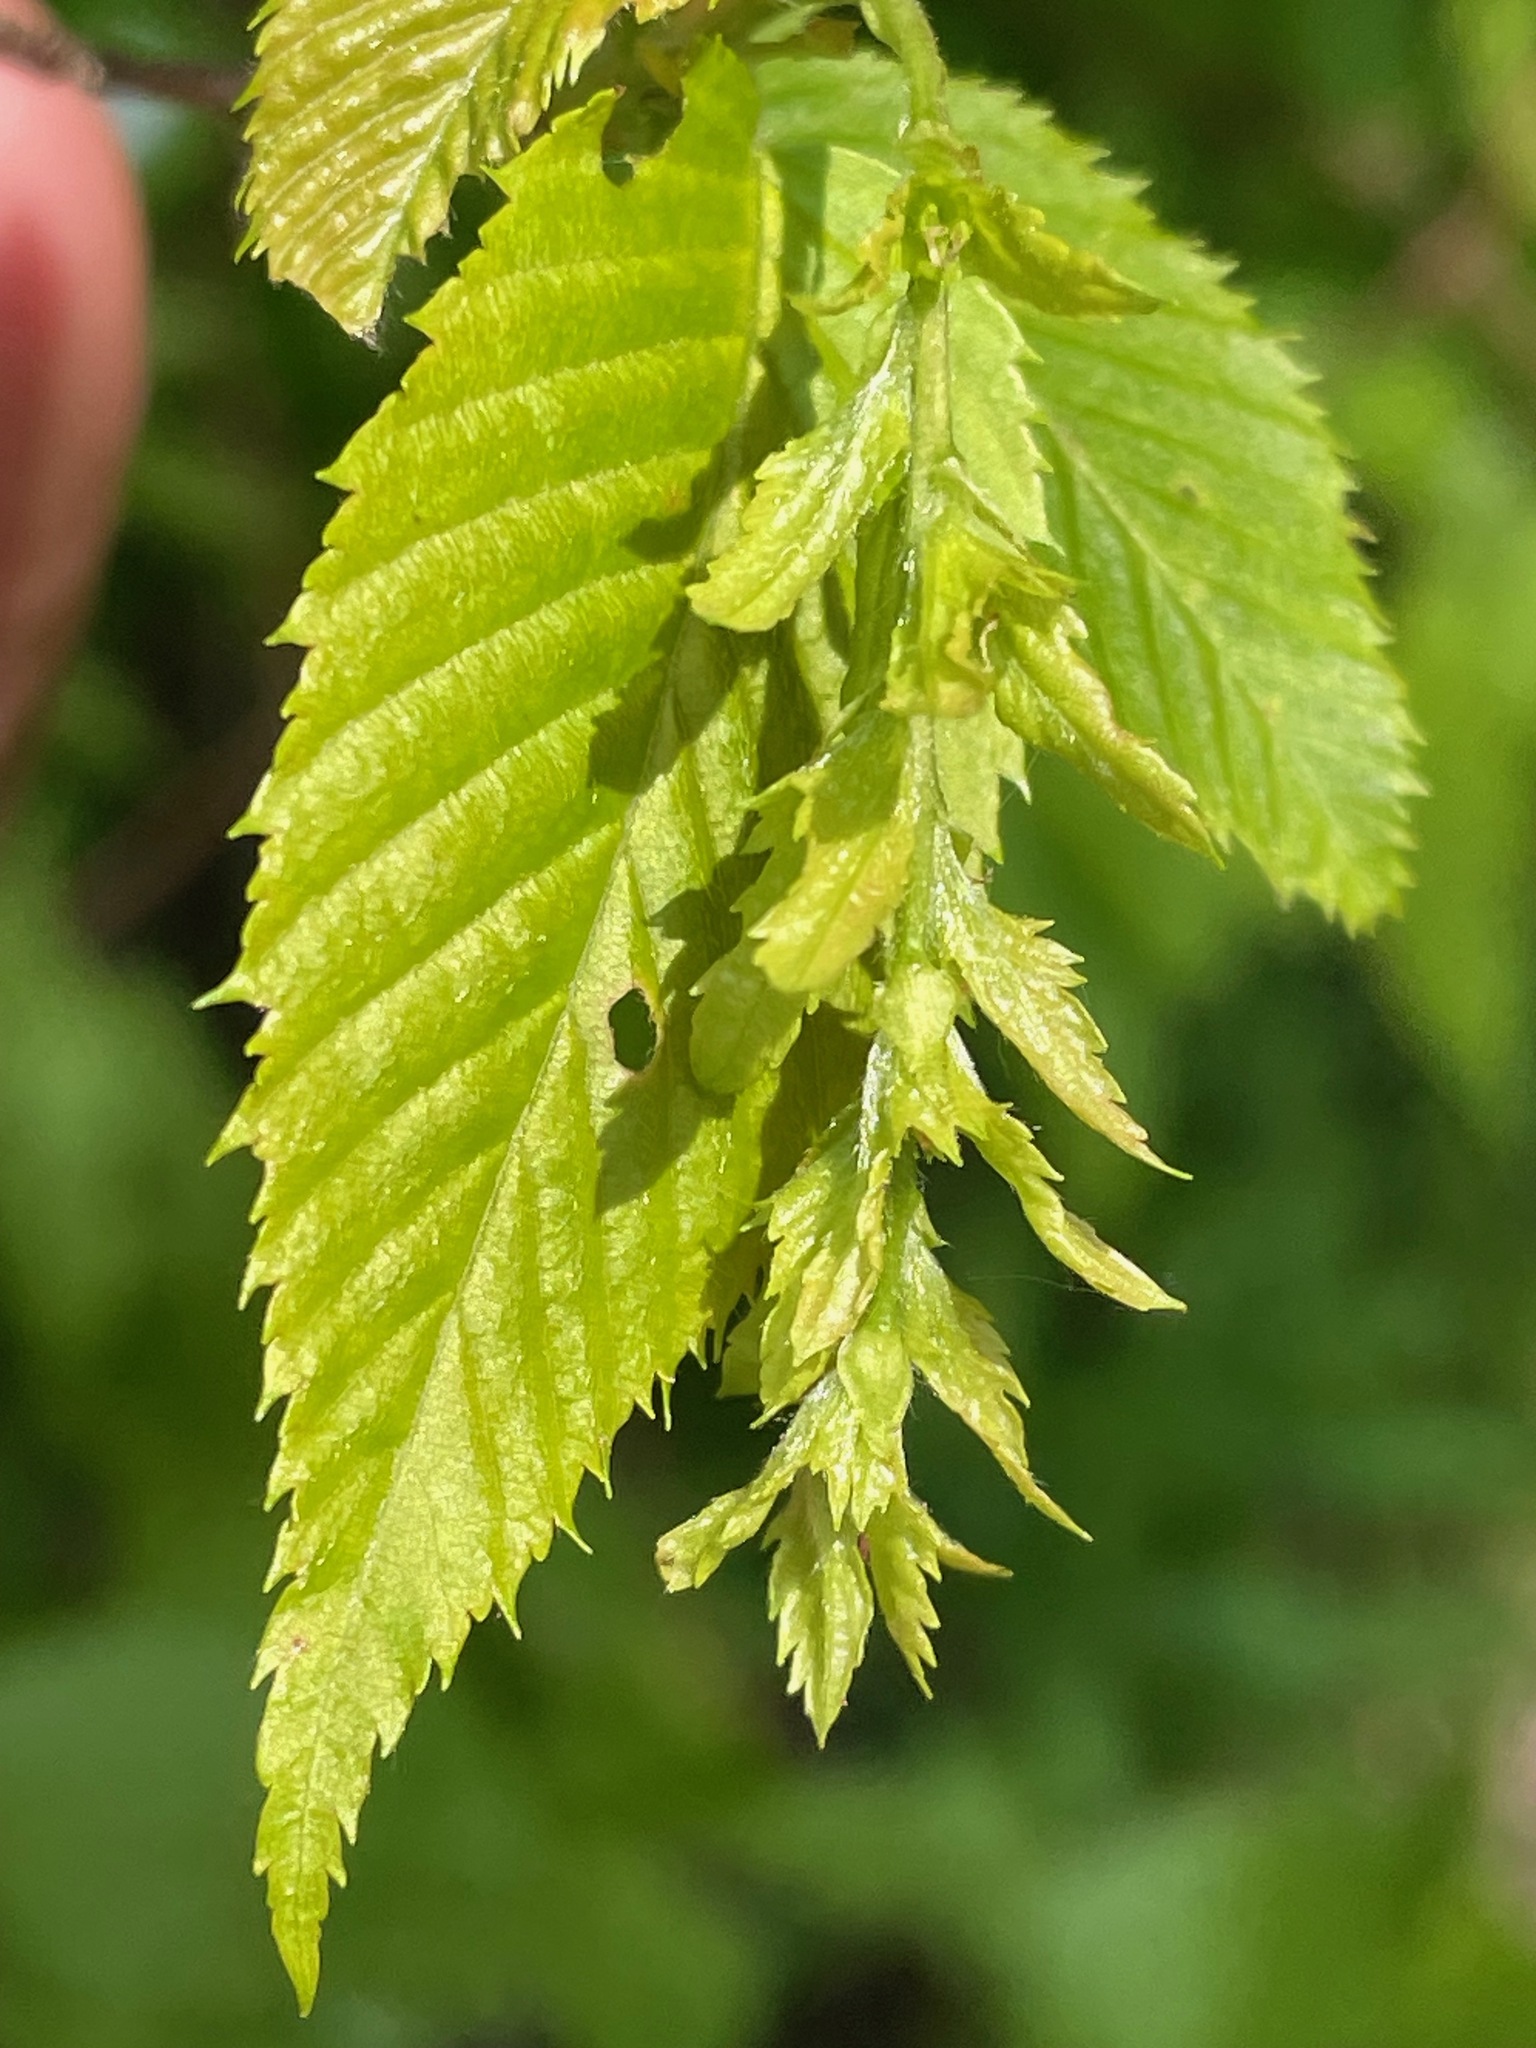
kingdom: Plantae
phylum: Tracheophyta
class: Magnoliopsida
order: Fagales
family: Betulaceae
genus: Carpinus
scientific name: Carpinus caroliniana
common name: American hornbeam
